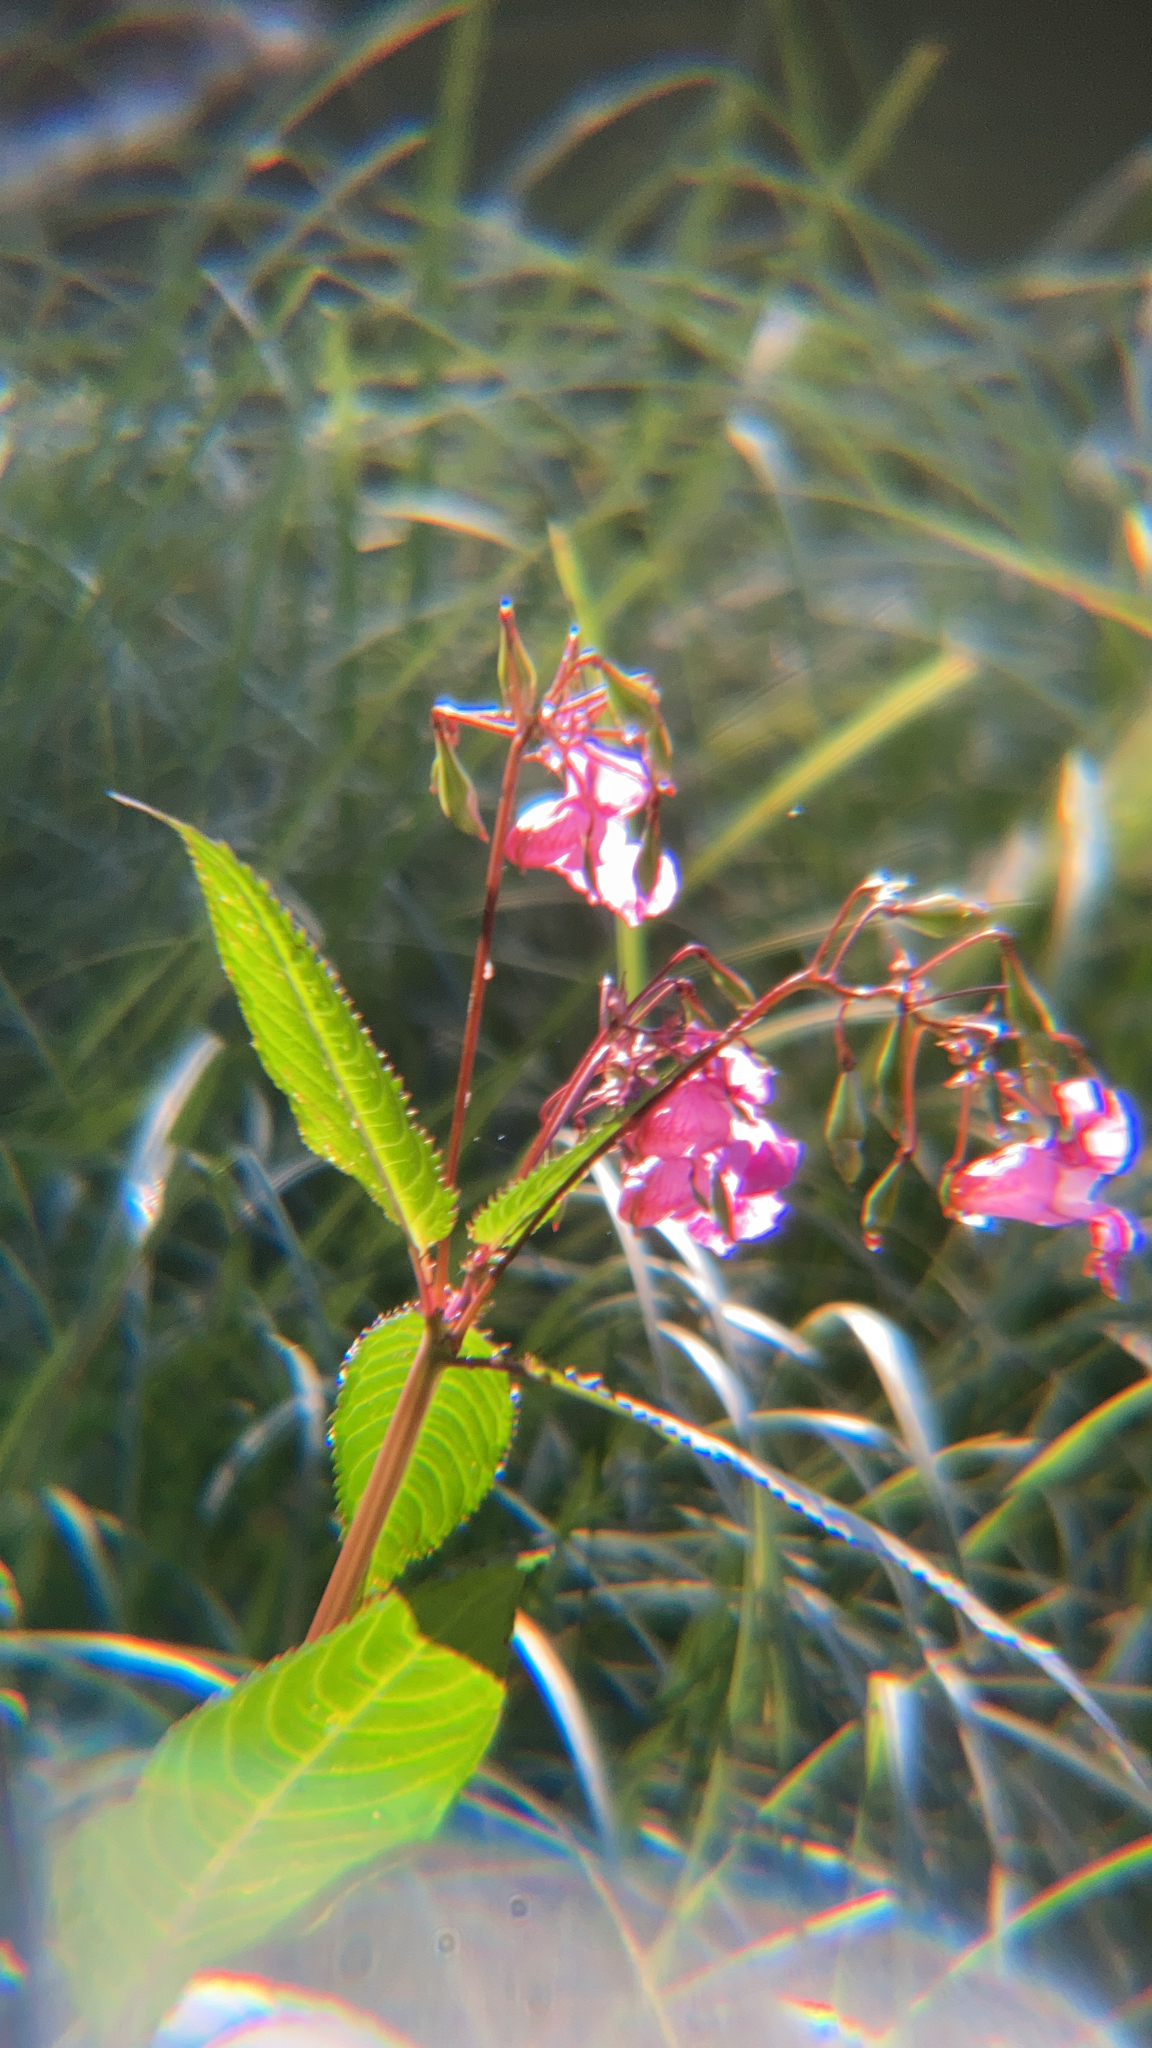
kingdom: Plantae
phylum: Tracheophyta
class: Magnoliopsida
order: Ericales
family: Balsaminaceae
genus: Impatiens
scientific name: Impatiens glandulifera
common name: Himalayan balsam
